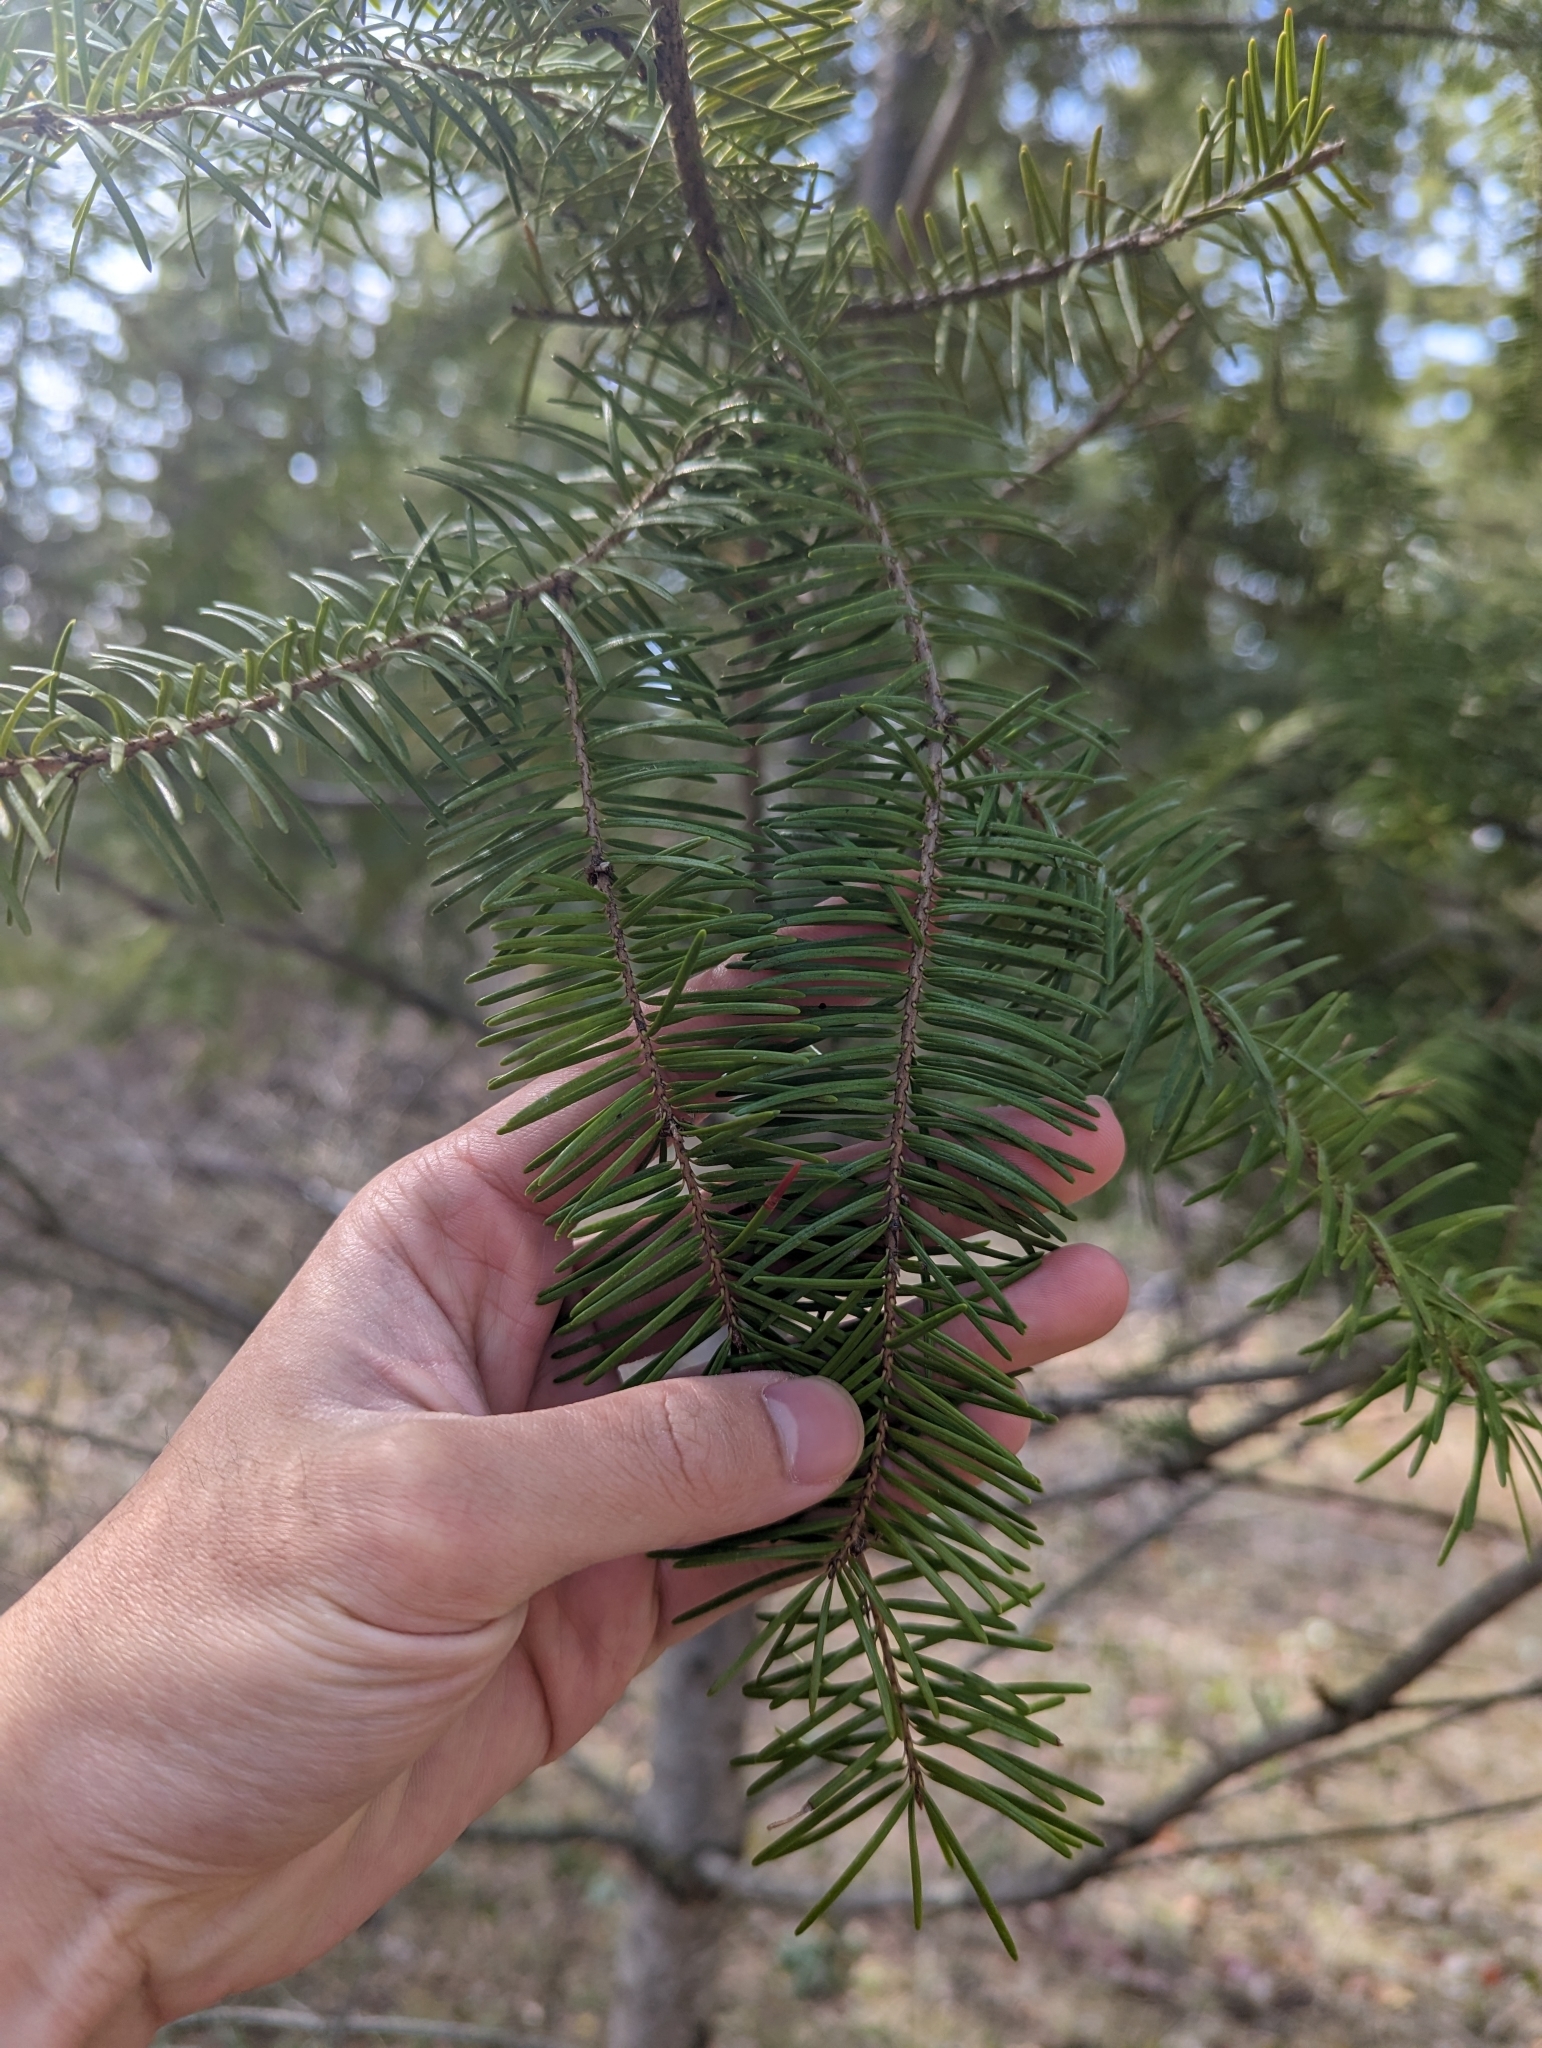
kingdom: Plantae
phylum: Tracheophyta
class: Pinopsida
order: Pinales
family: Pinaceae
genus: Pseudotsuga
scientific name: Pseudotsuga menziesii
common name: Douglas fir
